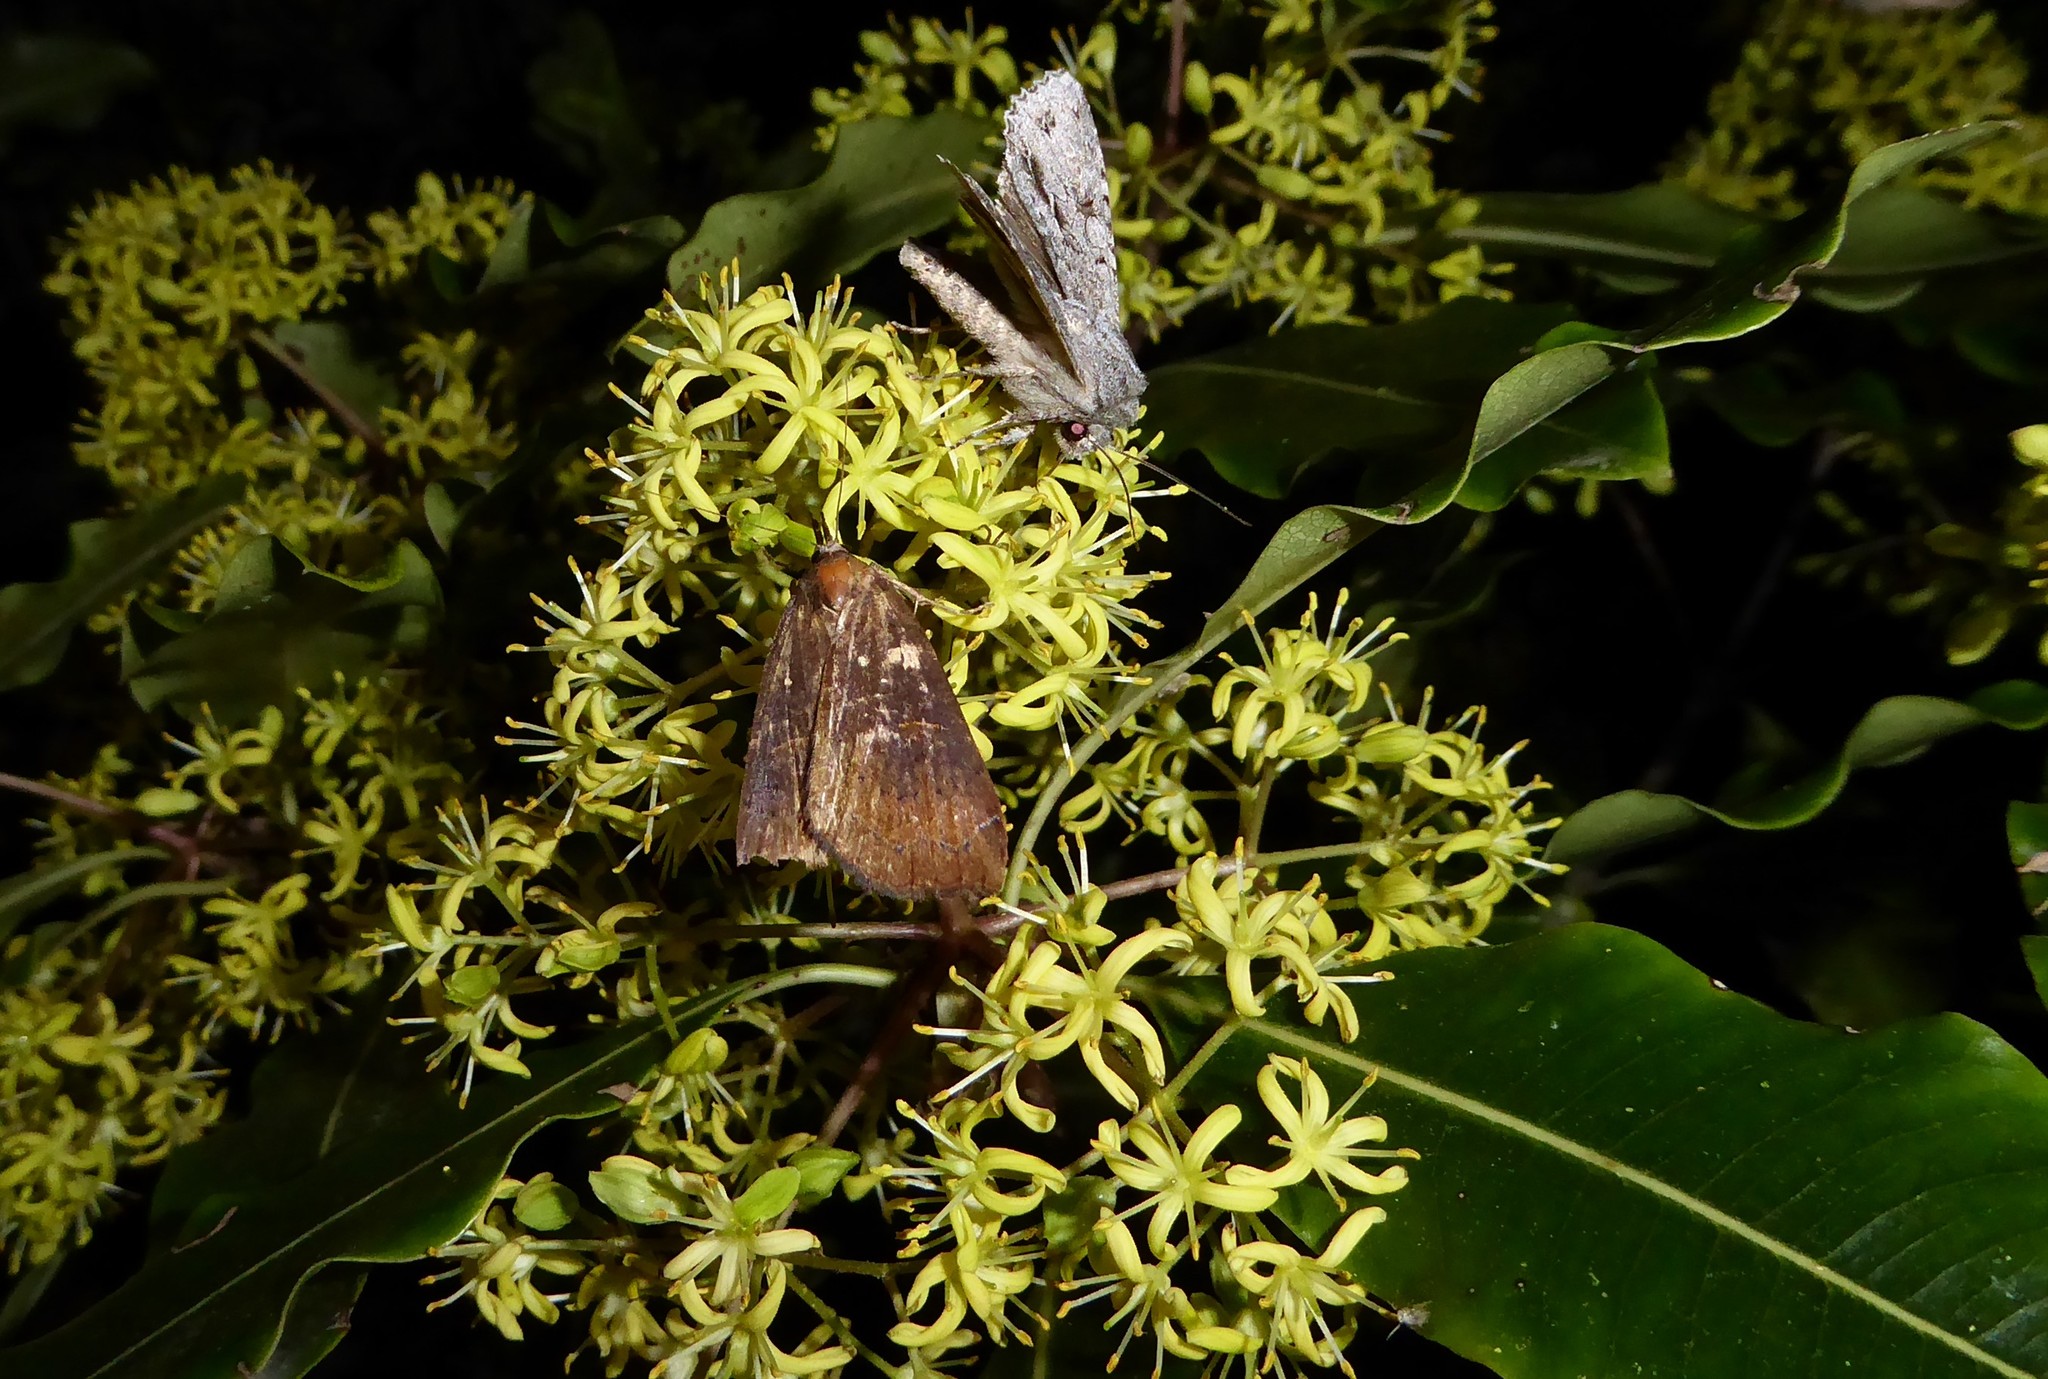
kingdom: Animalia
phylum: Arthropoda
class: Insecta
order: Lepidoptera
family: Erebidae
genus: Rhapsa
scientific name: Rhapsa scotosialis
